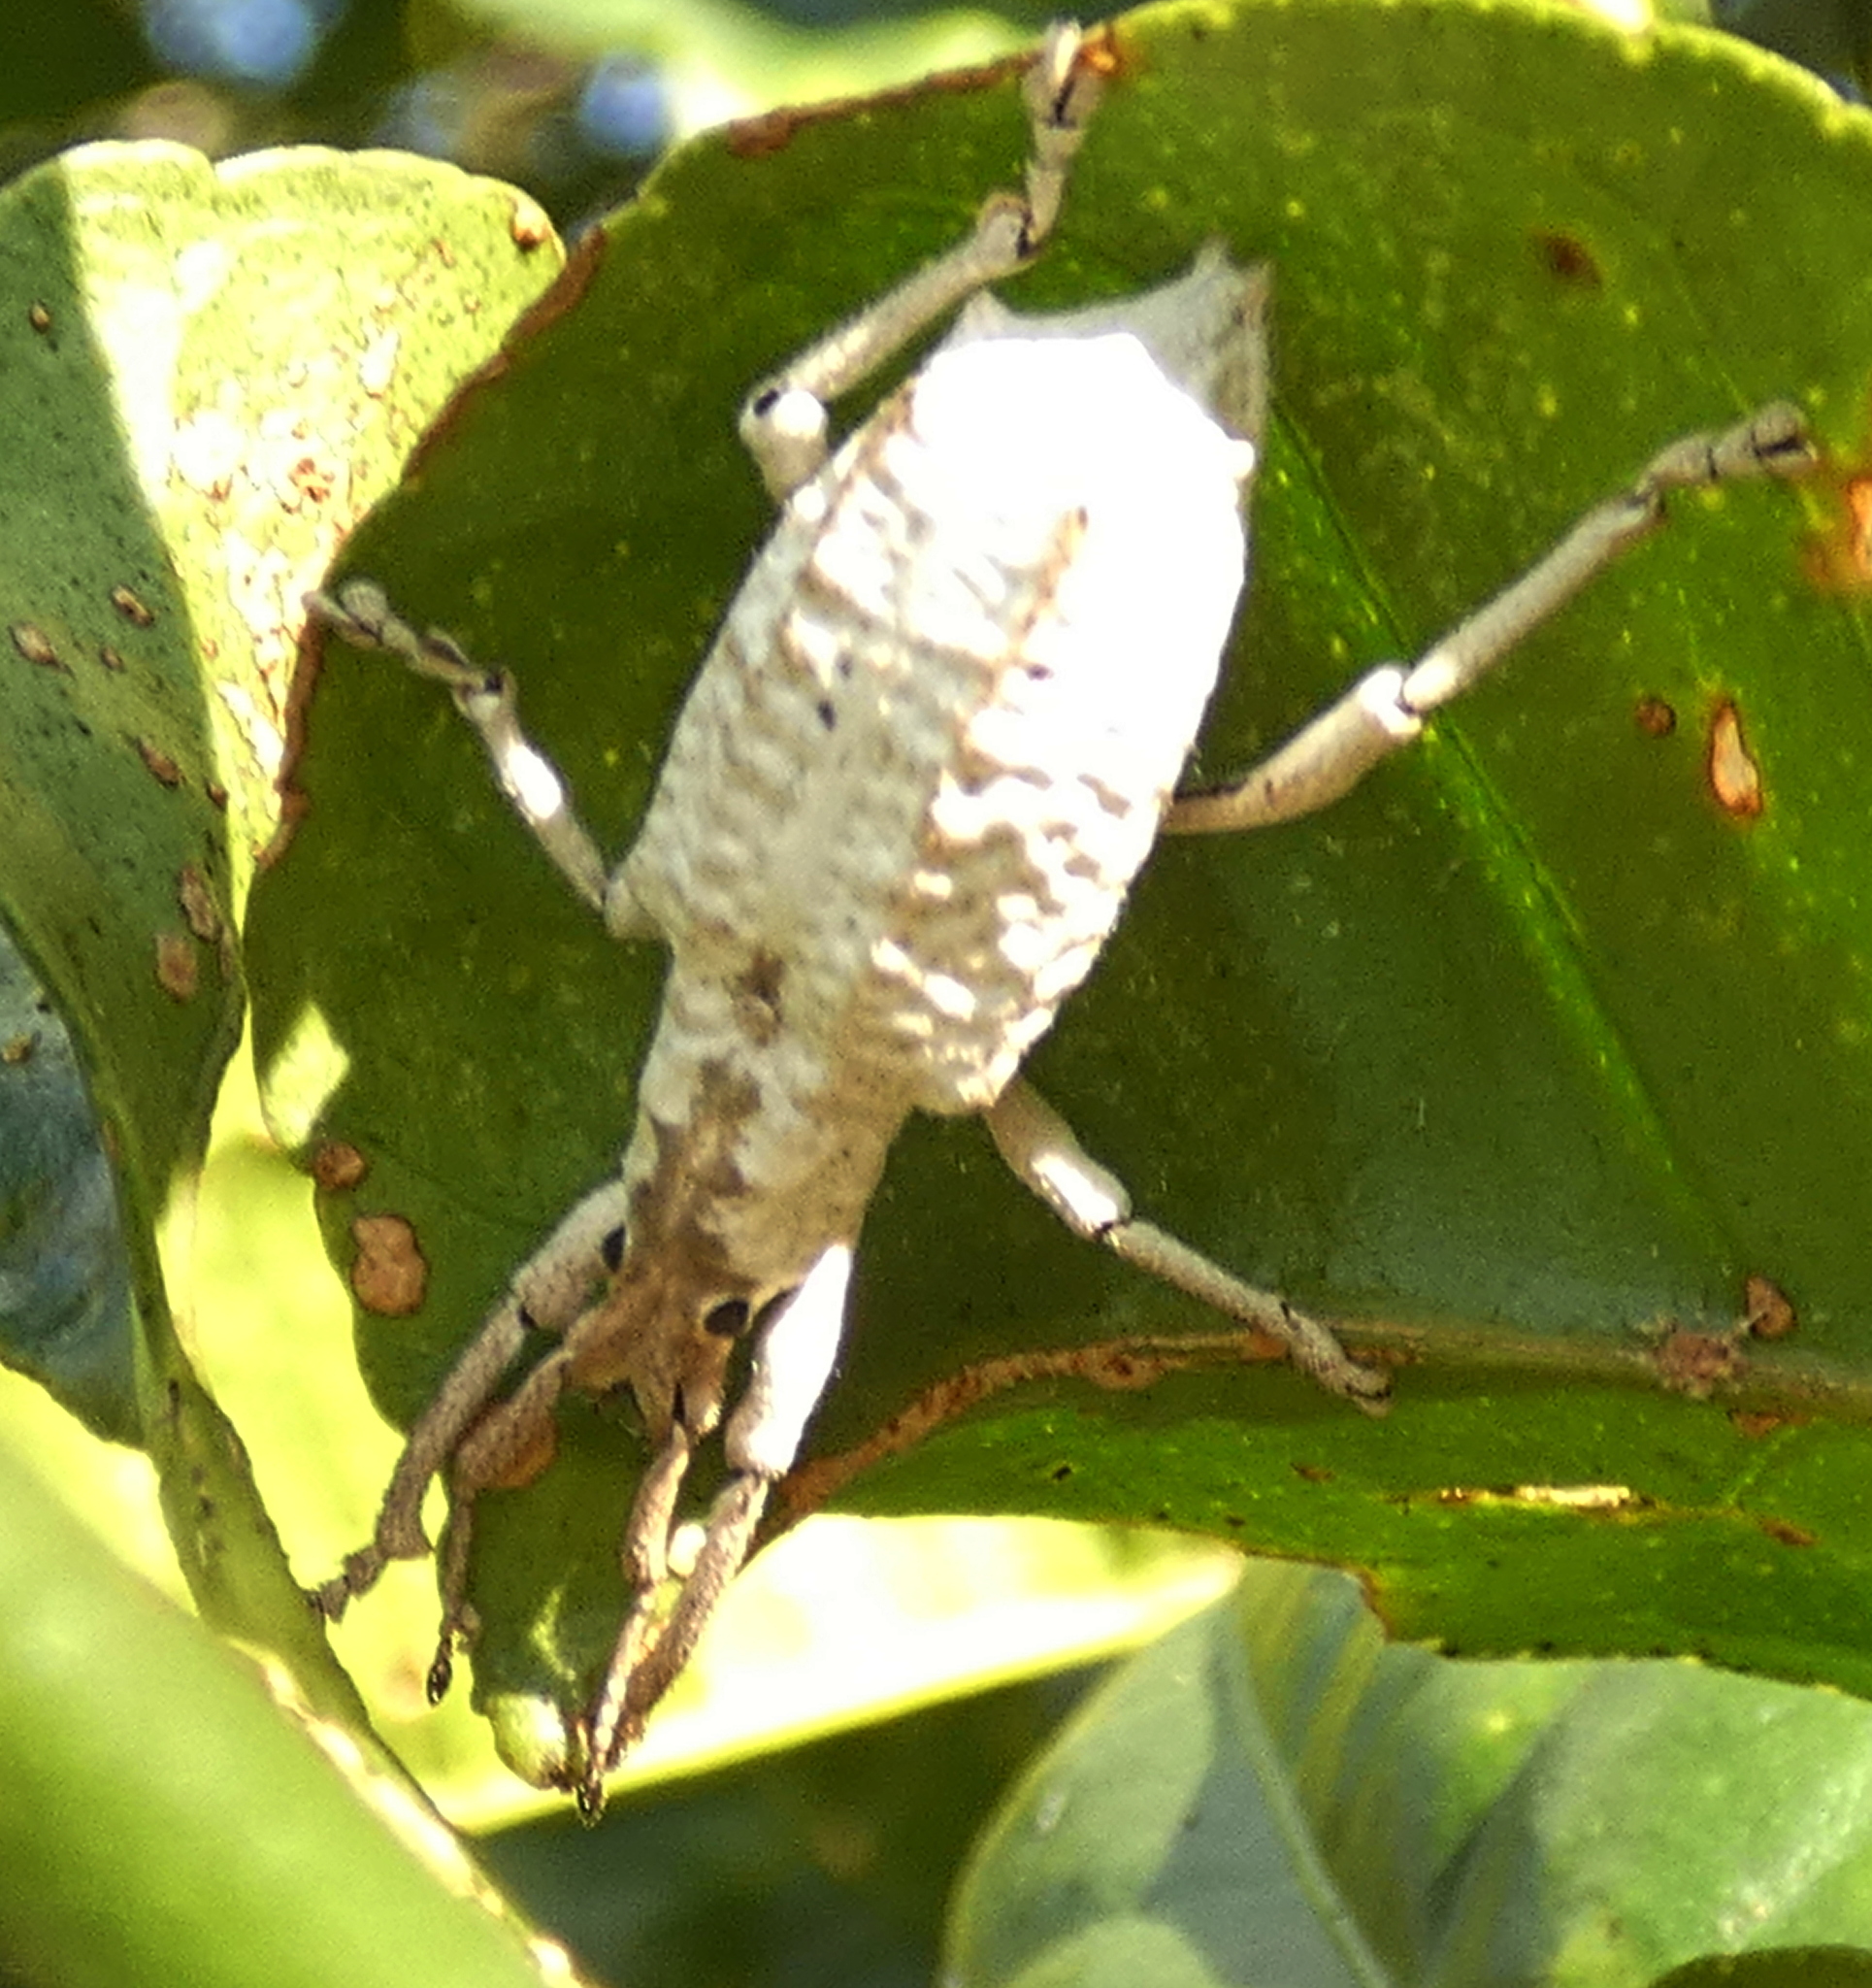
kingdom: Animalia
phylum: Arthropoda
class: Insecta
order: Coleoptera
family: Curculionidae
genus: Compsus
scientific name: Compsus niveus
